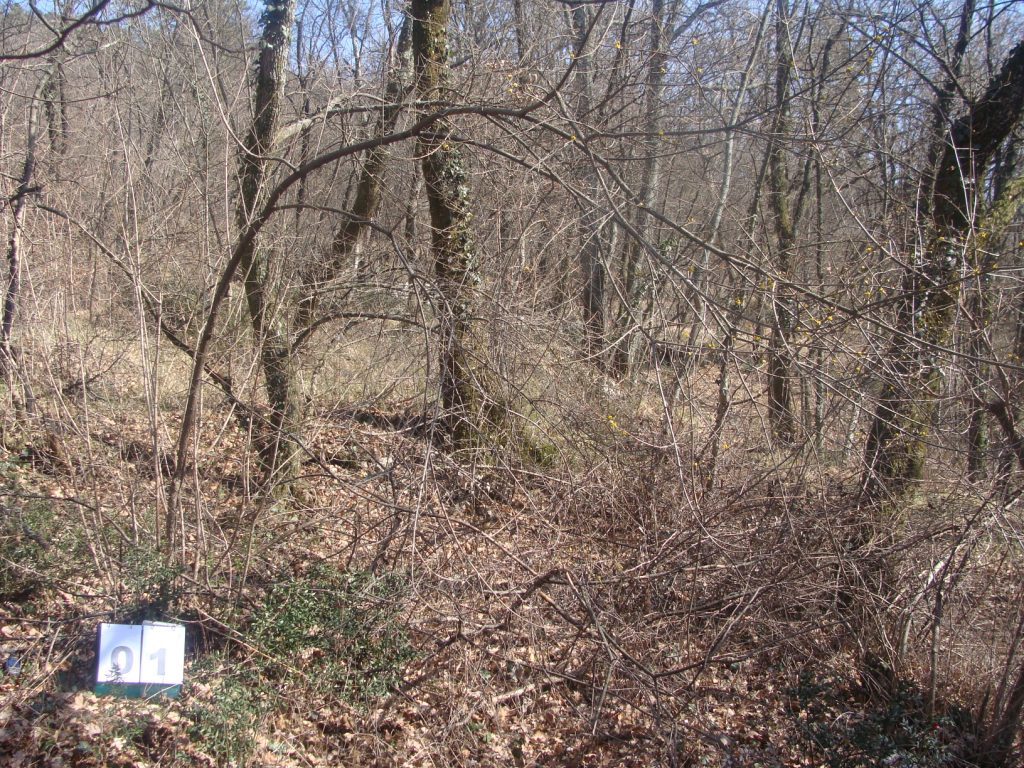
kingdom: Plantae
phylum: Tracheophyta
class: Magnoliopsida
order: Cornales
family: Cornaceae
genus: Cornus
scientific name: Cornus mas
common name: Cornelian-cherry
